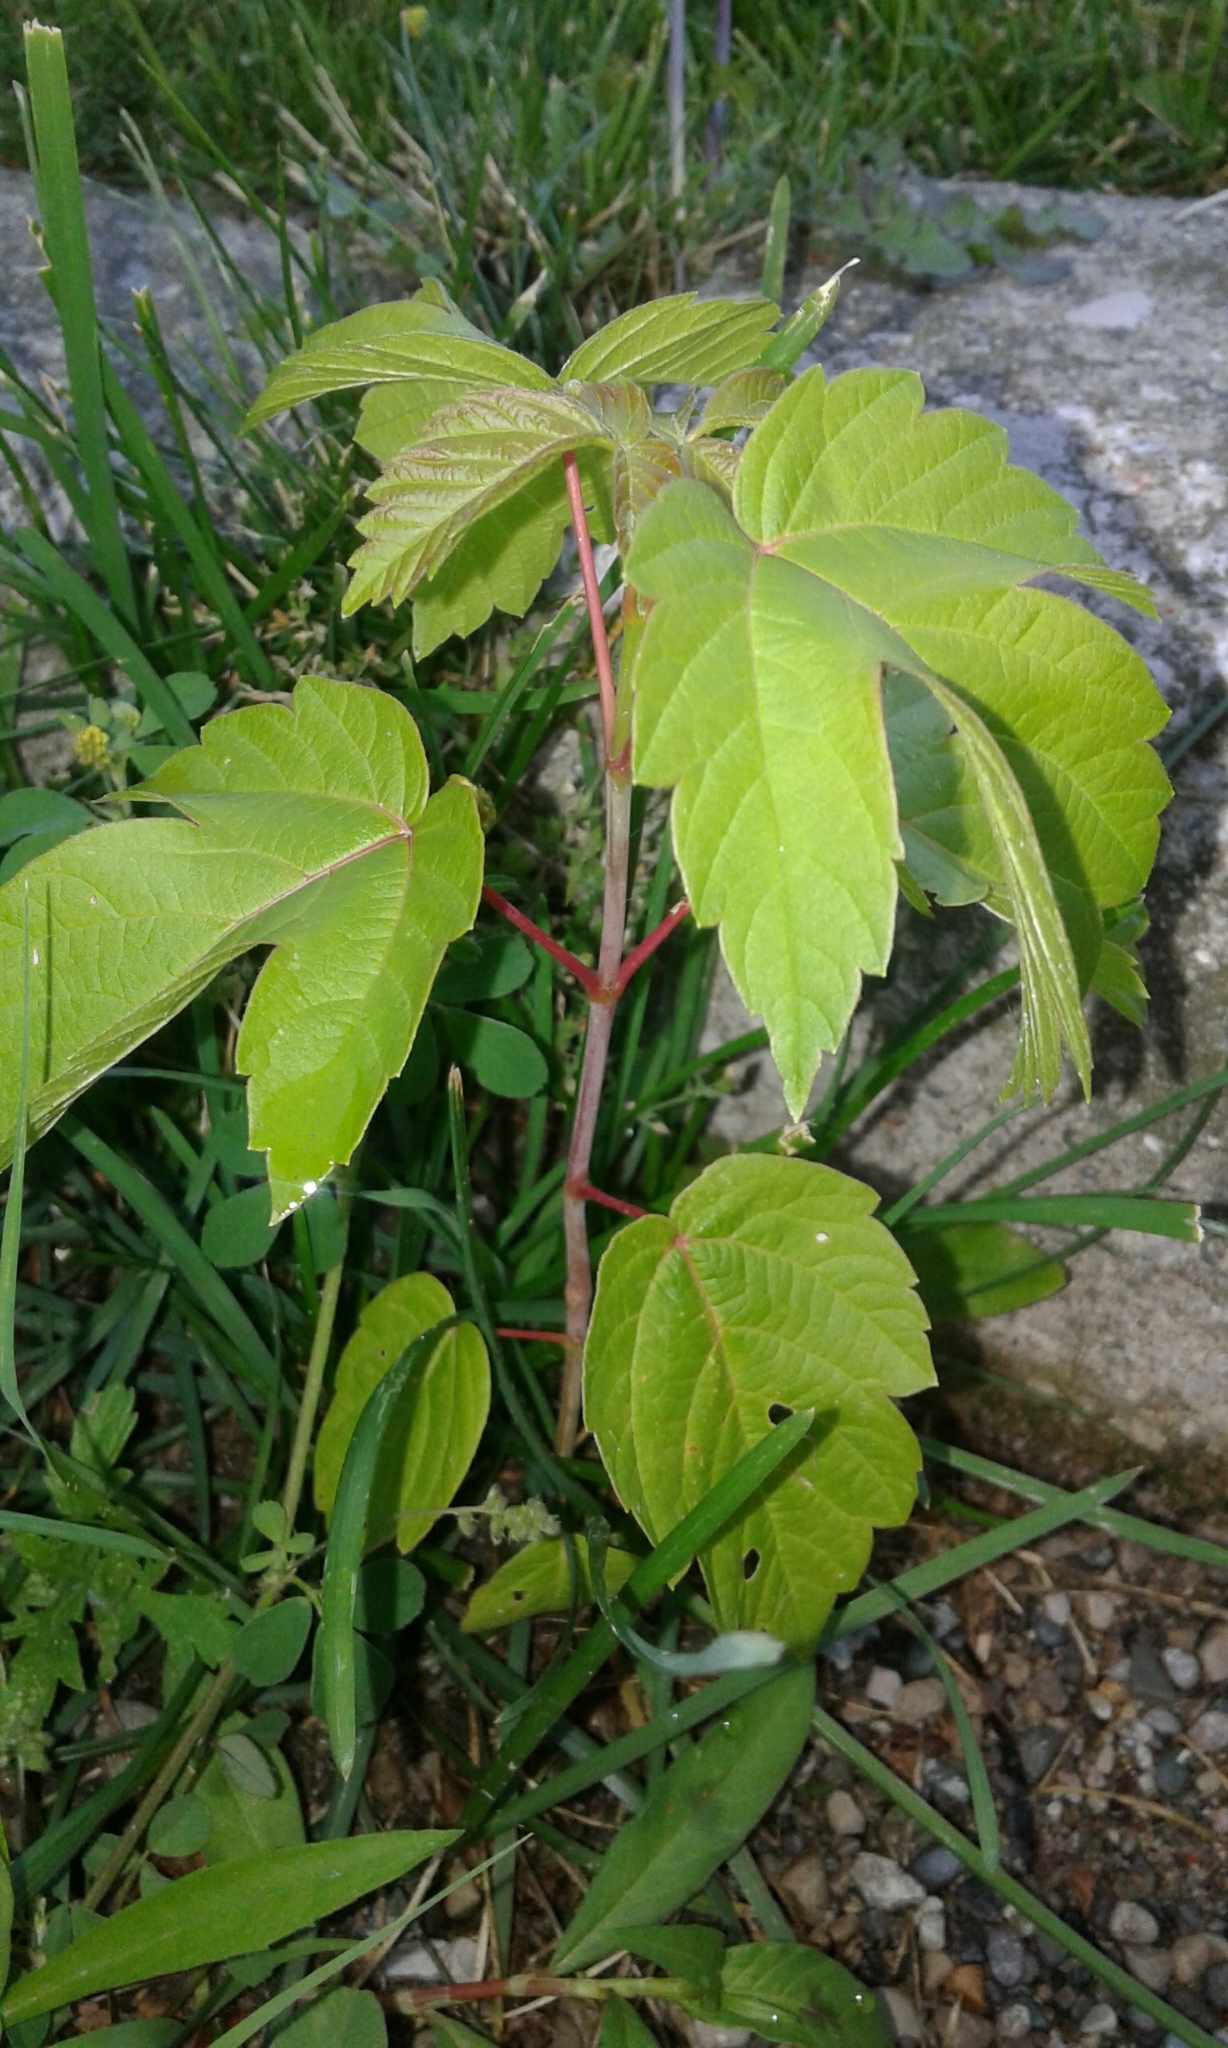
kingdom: Plantae
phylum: Tracheophyta
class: Magnoliopsida
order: Sapindales
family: Sapindaceae
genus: Acer
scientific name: Acer negundo
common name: Ashleaf maple
